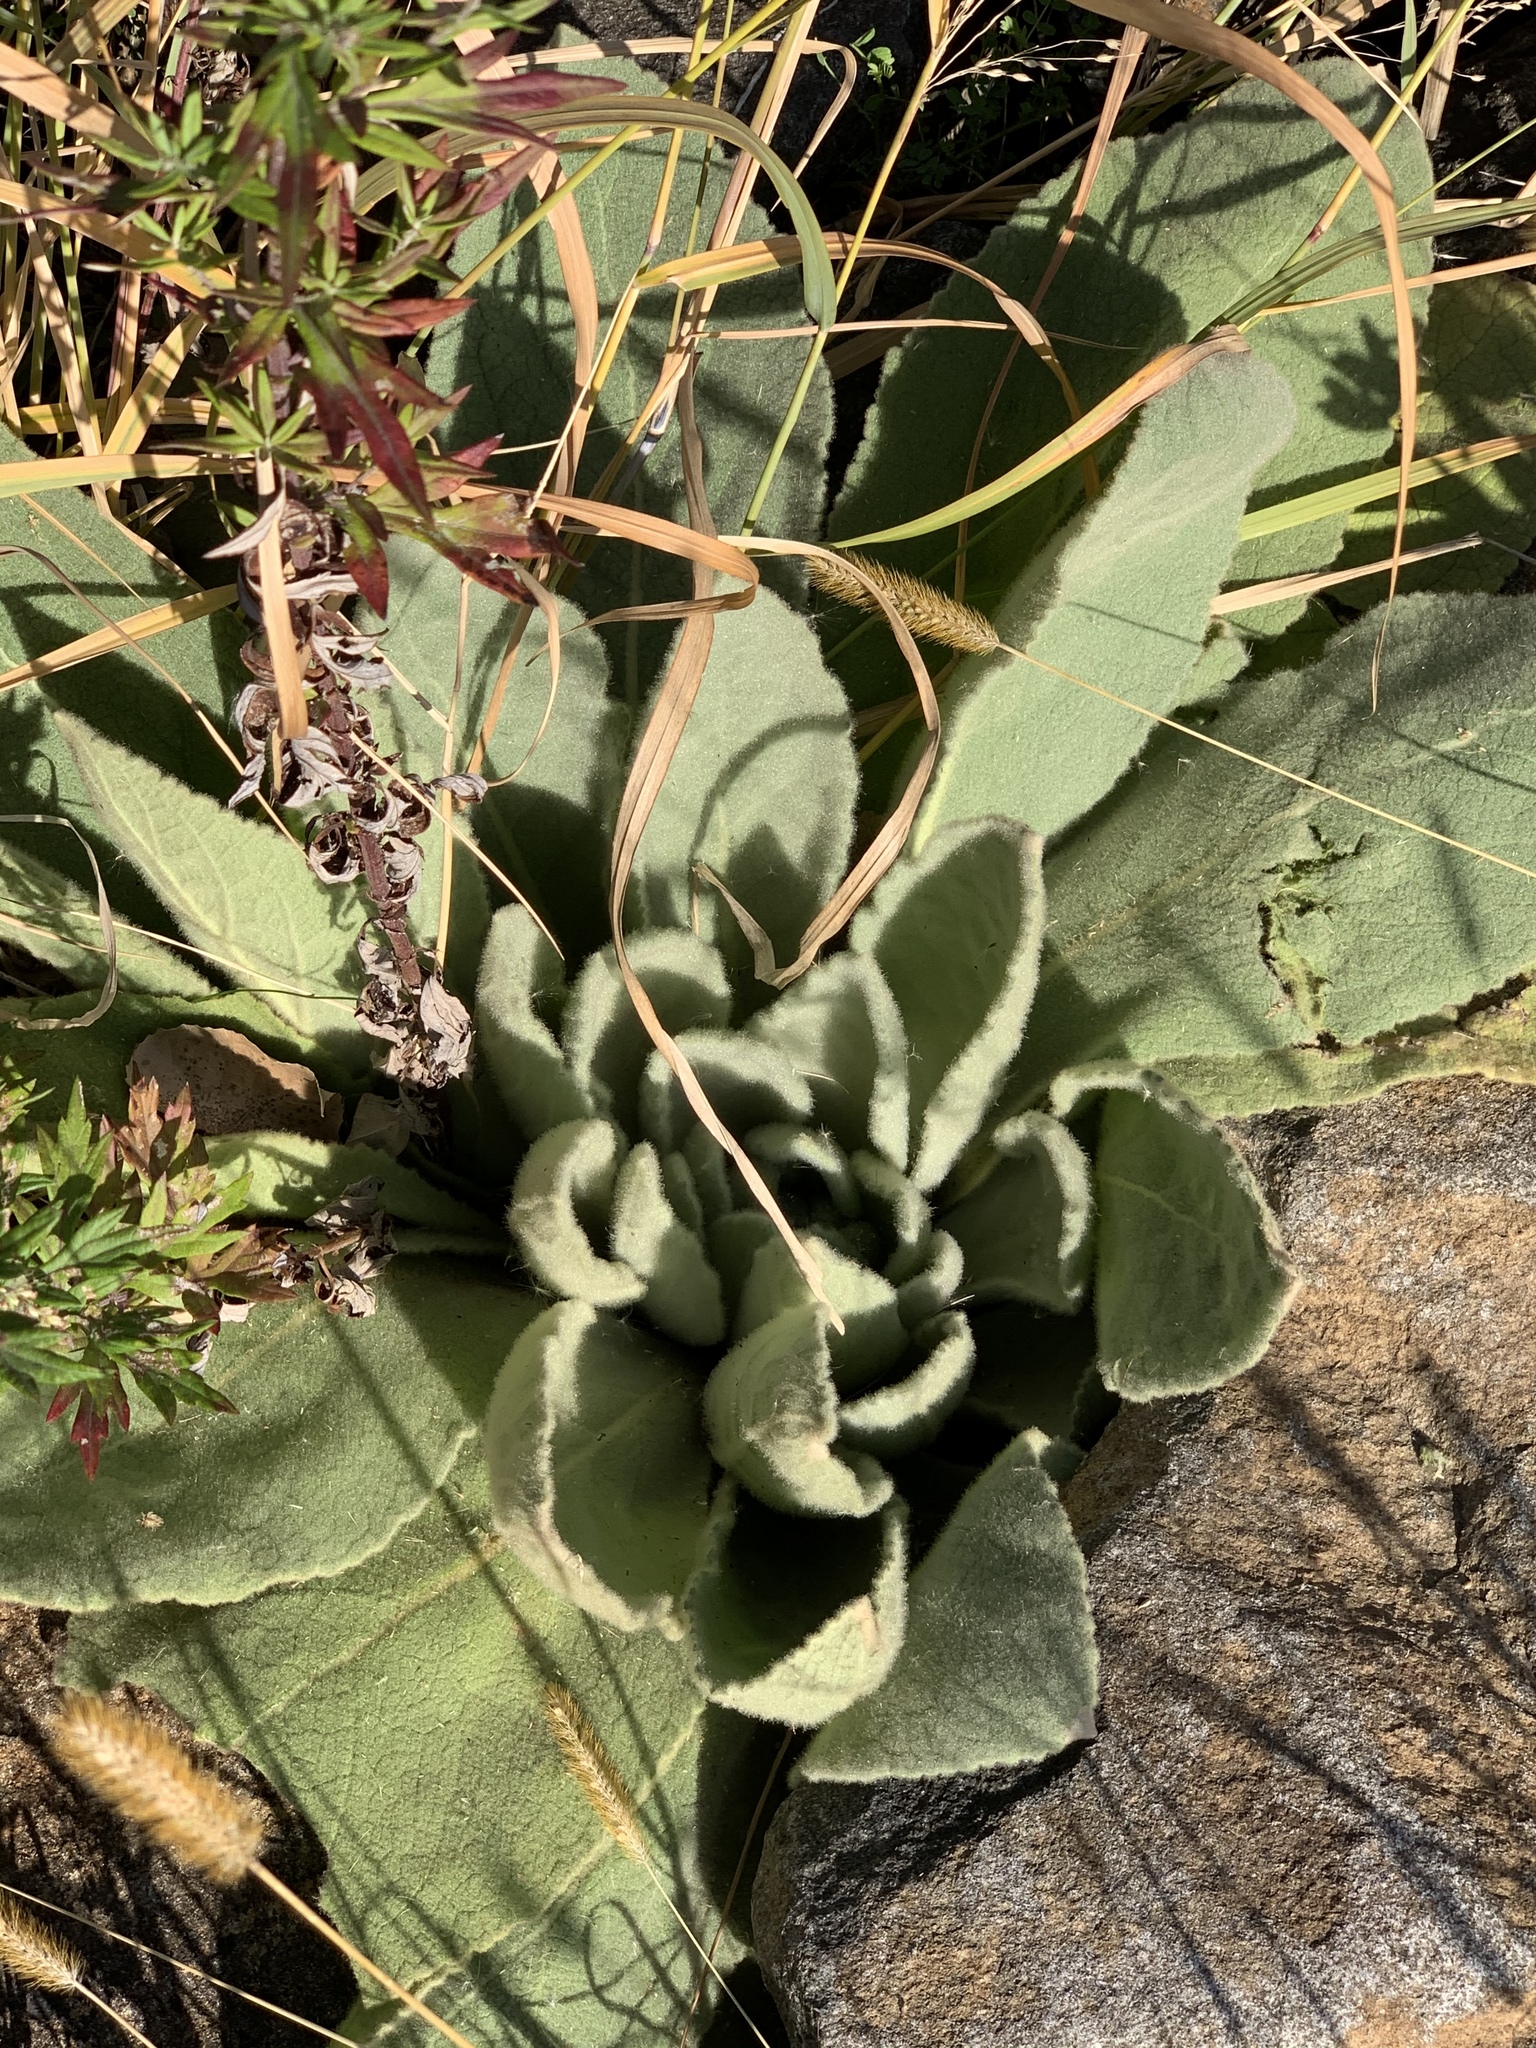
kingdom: Plantae
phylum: Tracheophyta
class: Magnoliopsida
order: Lamiales
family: Scrophulariaceae
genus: Verbascum
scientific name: Verbascum thapsus
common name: Common mullein
